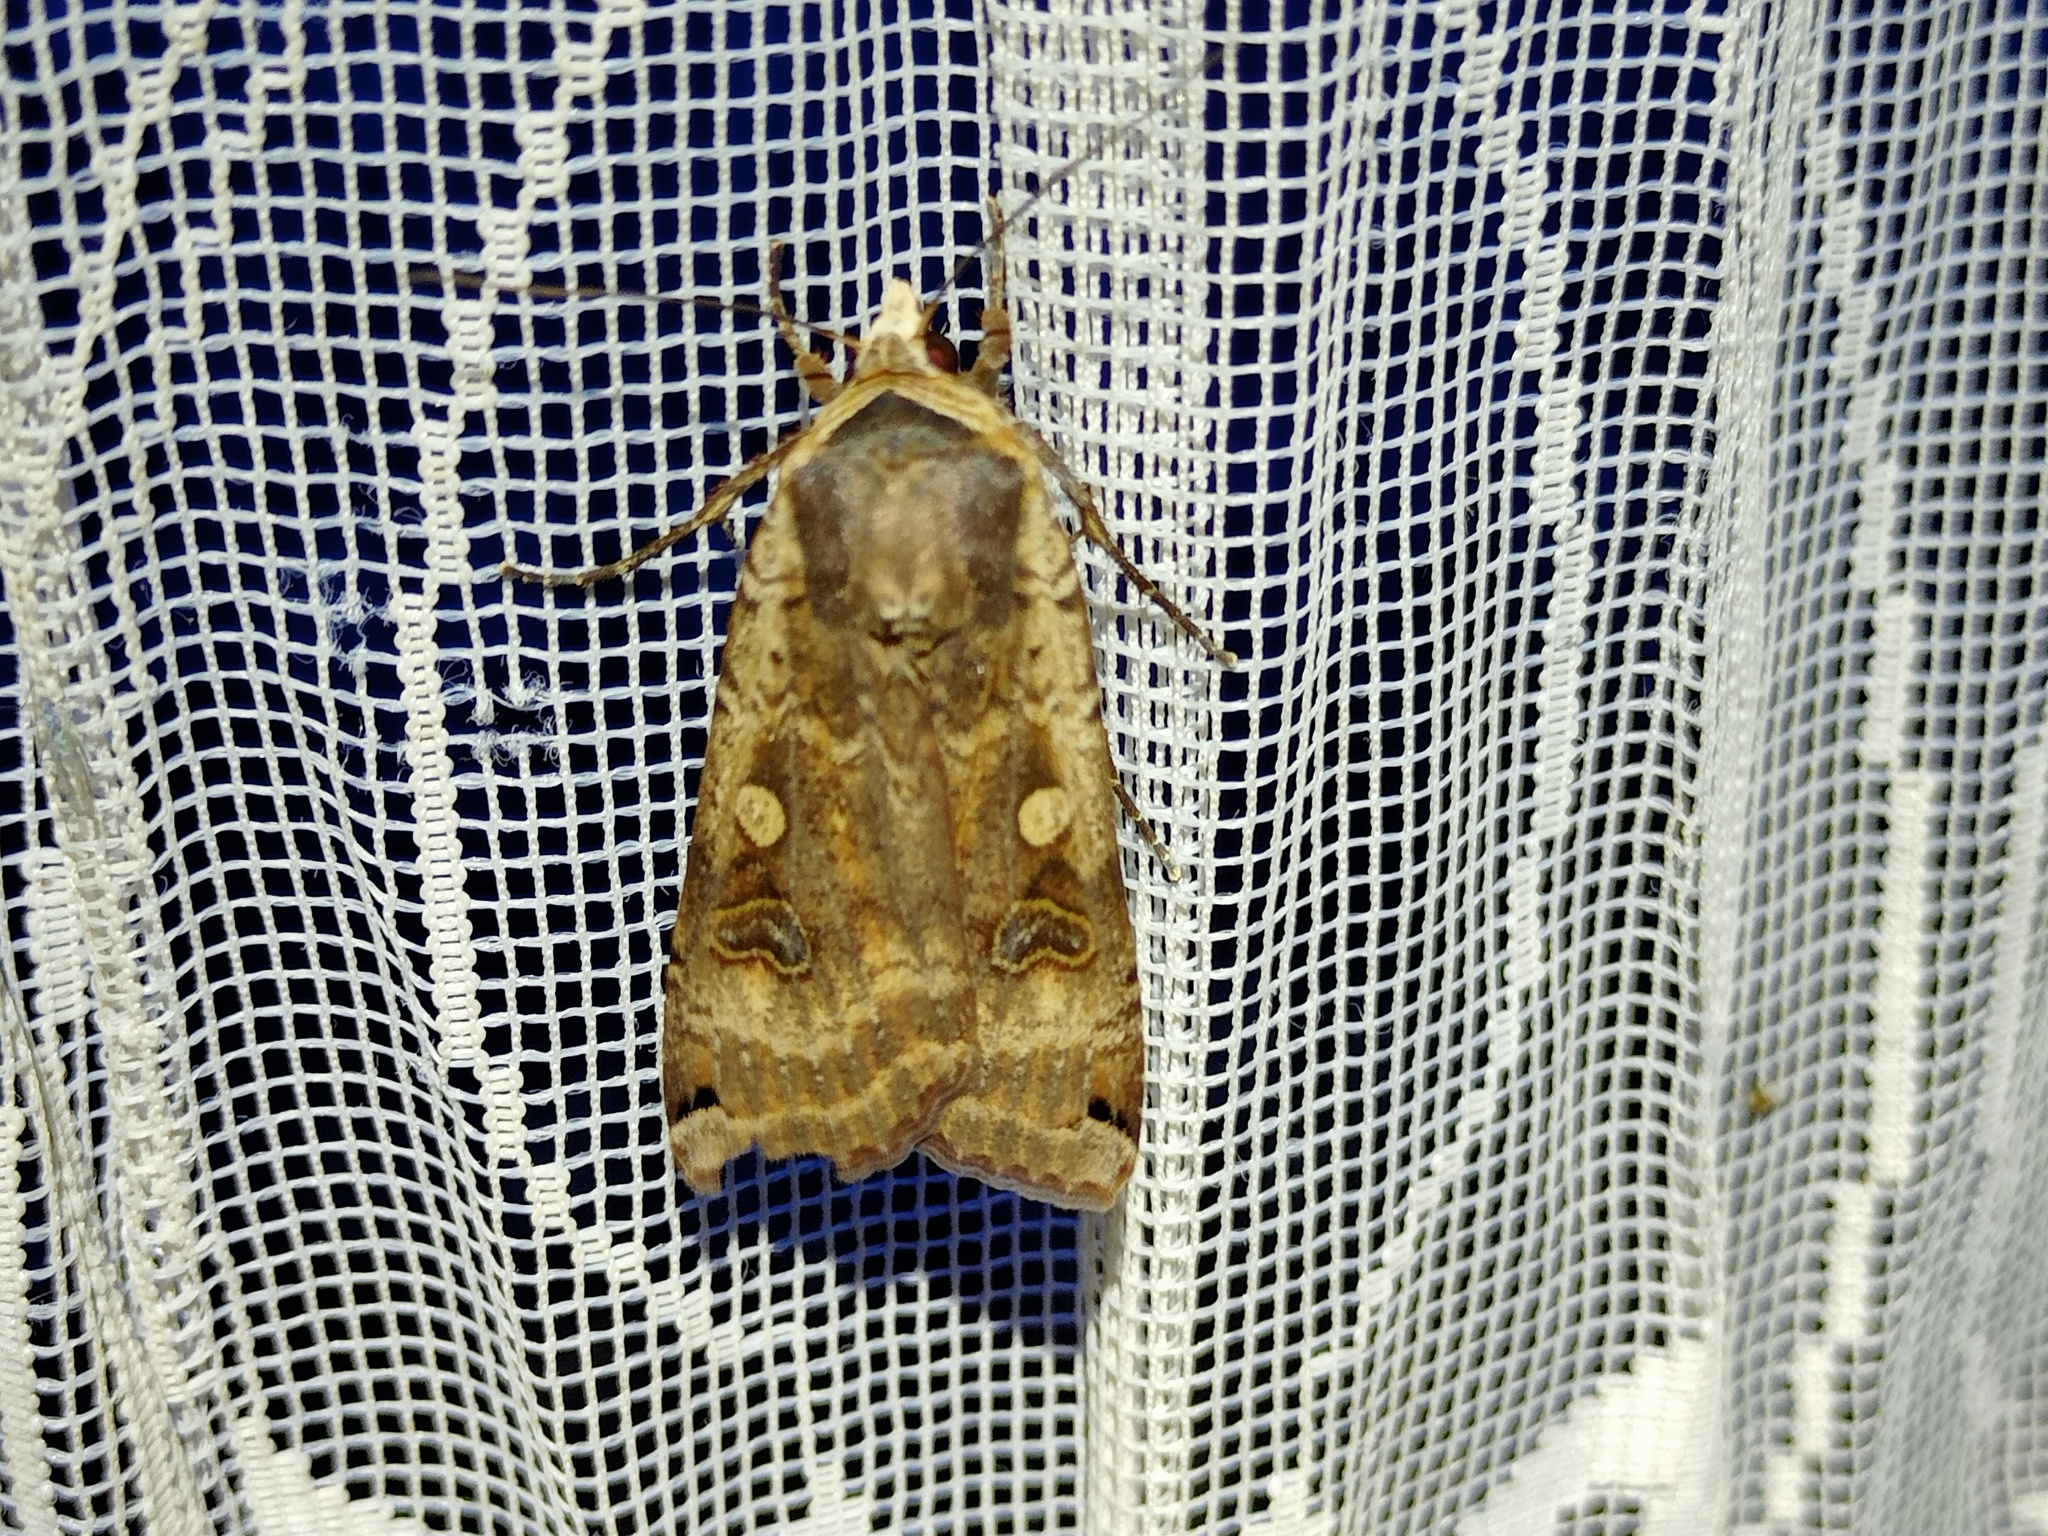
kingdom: Animalia
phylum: Arthropoda
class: Insecta
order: Lepidoptera
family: Noctuidae
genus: Noctua
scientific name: Noctua pronuba
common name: Large yellow underwing
